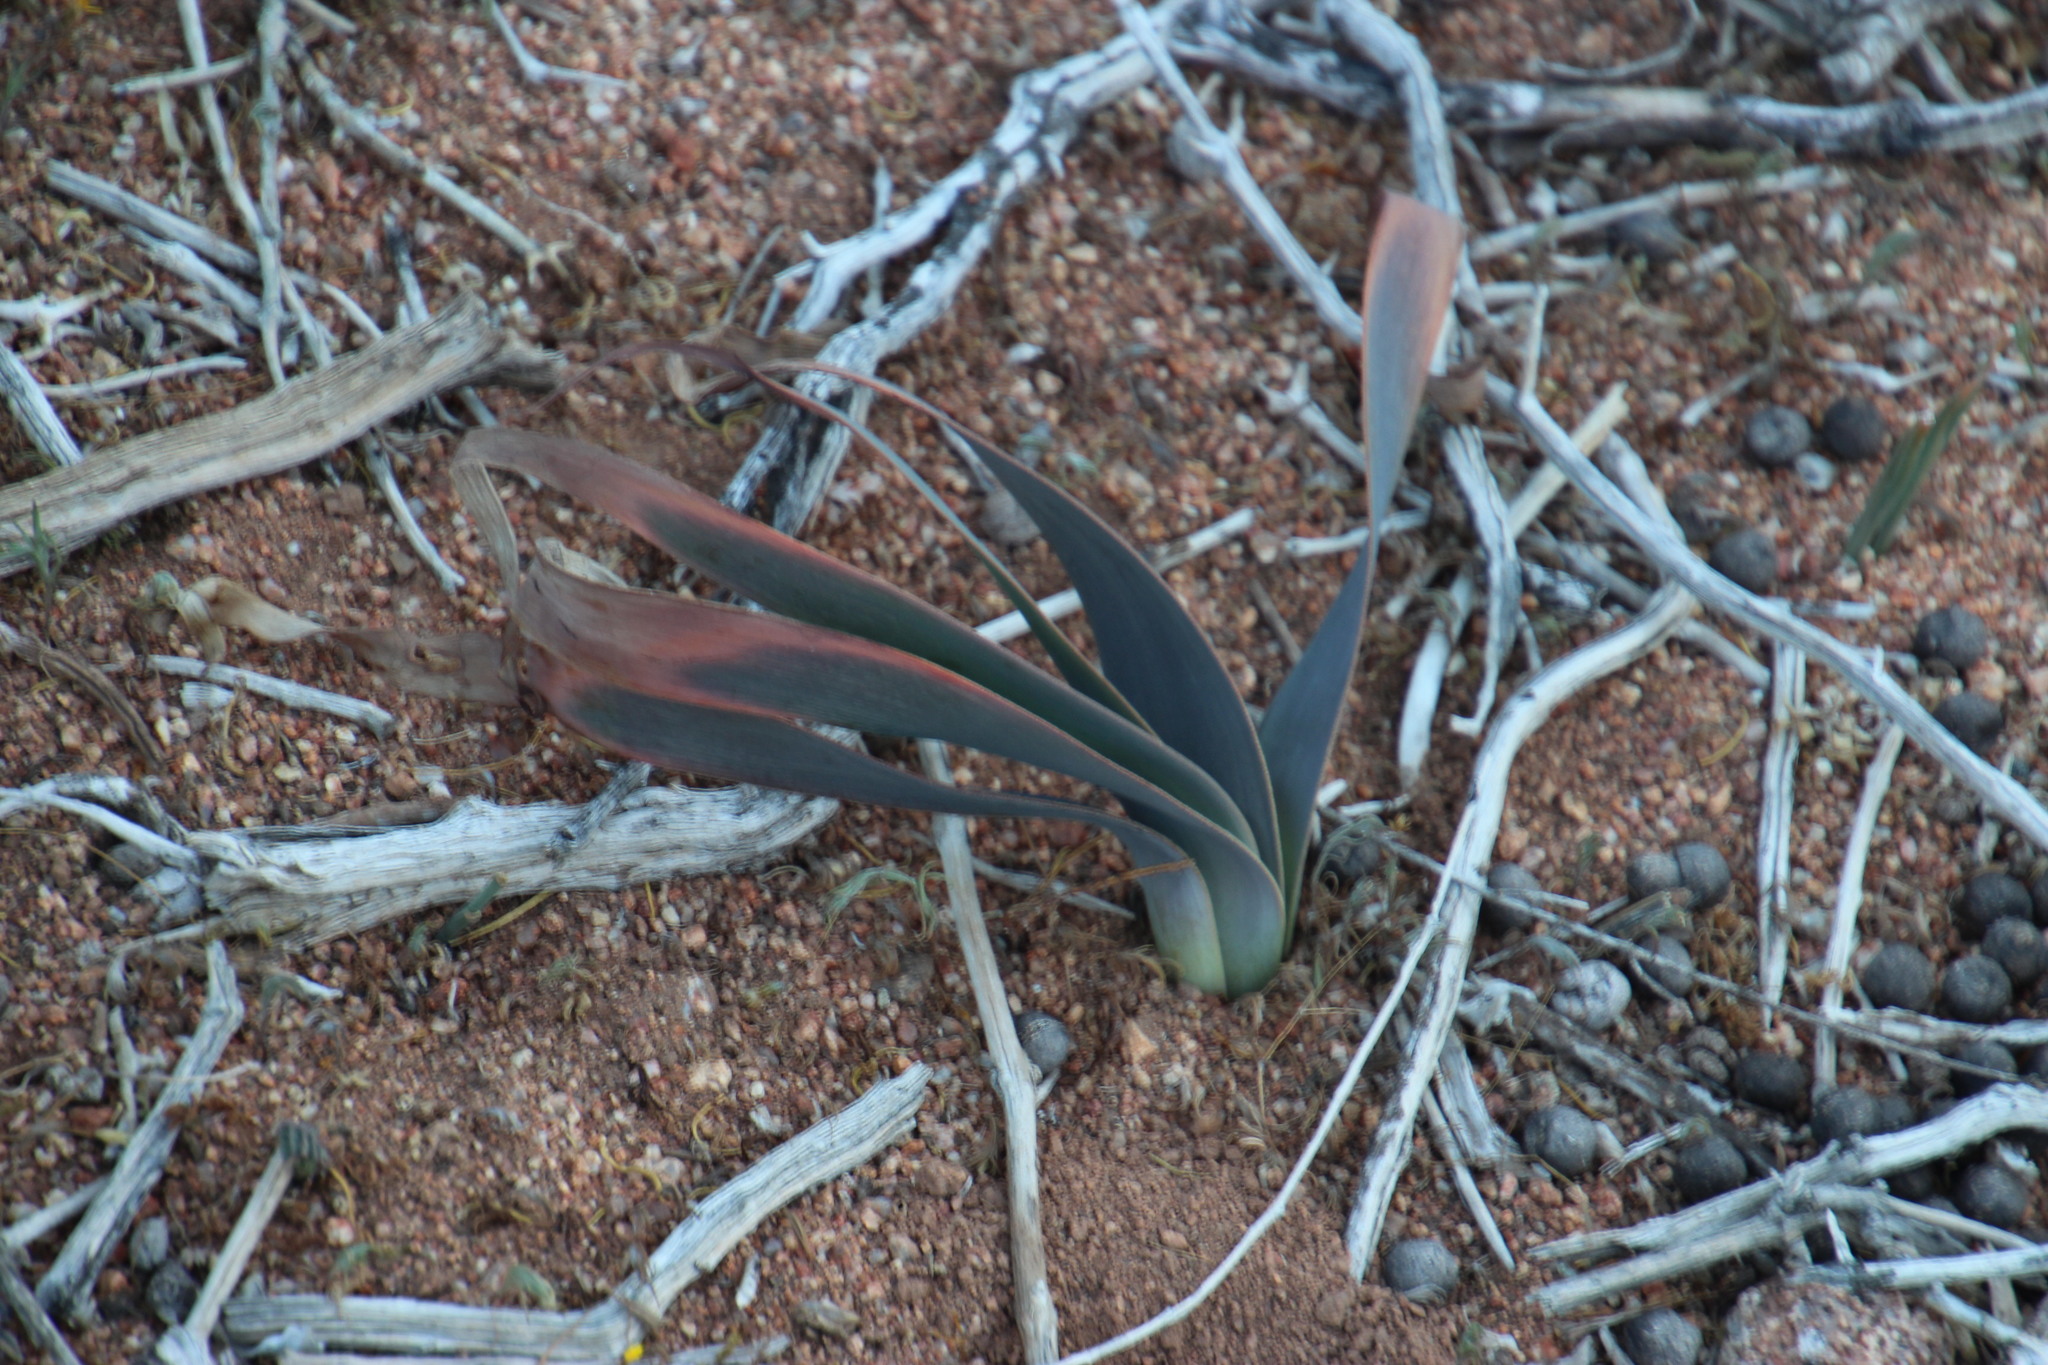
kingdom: Plantae
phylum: Tracheophyta
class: Liliopsida
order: Asparagales
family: Asphodelaceae
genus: Trachyandra
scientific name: Trachyandra falcata
